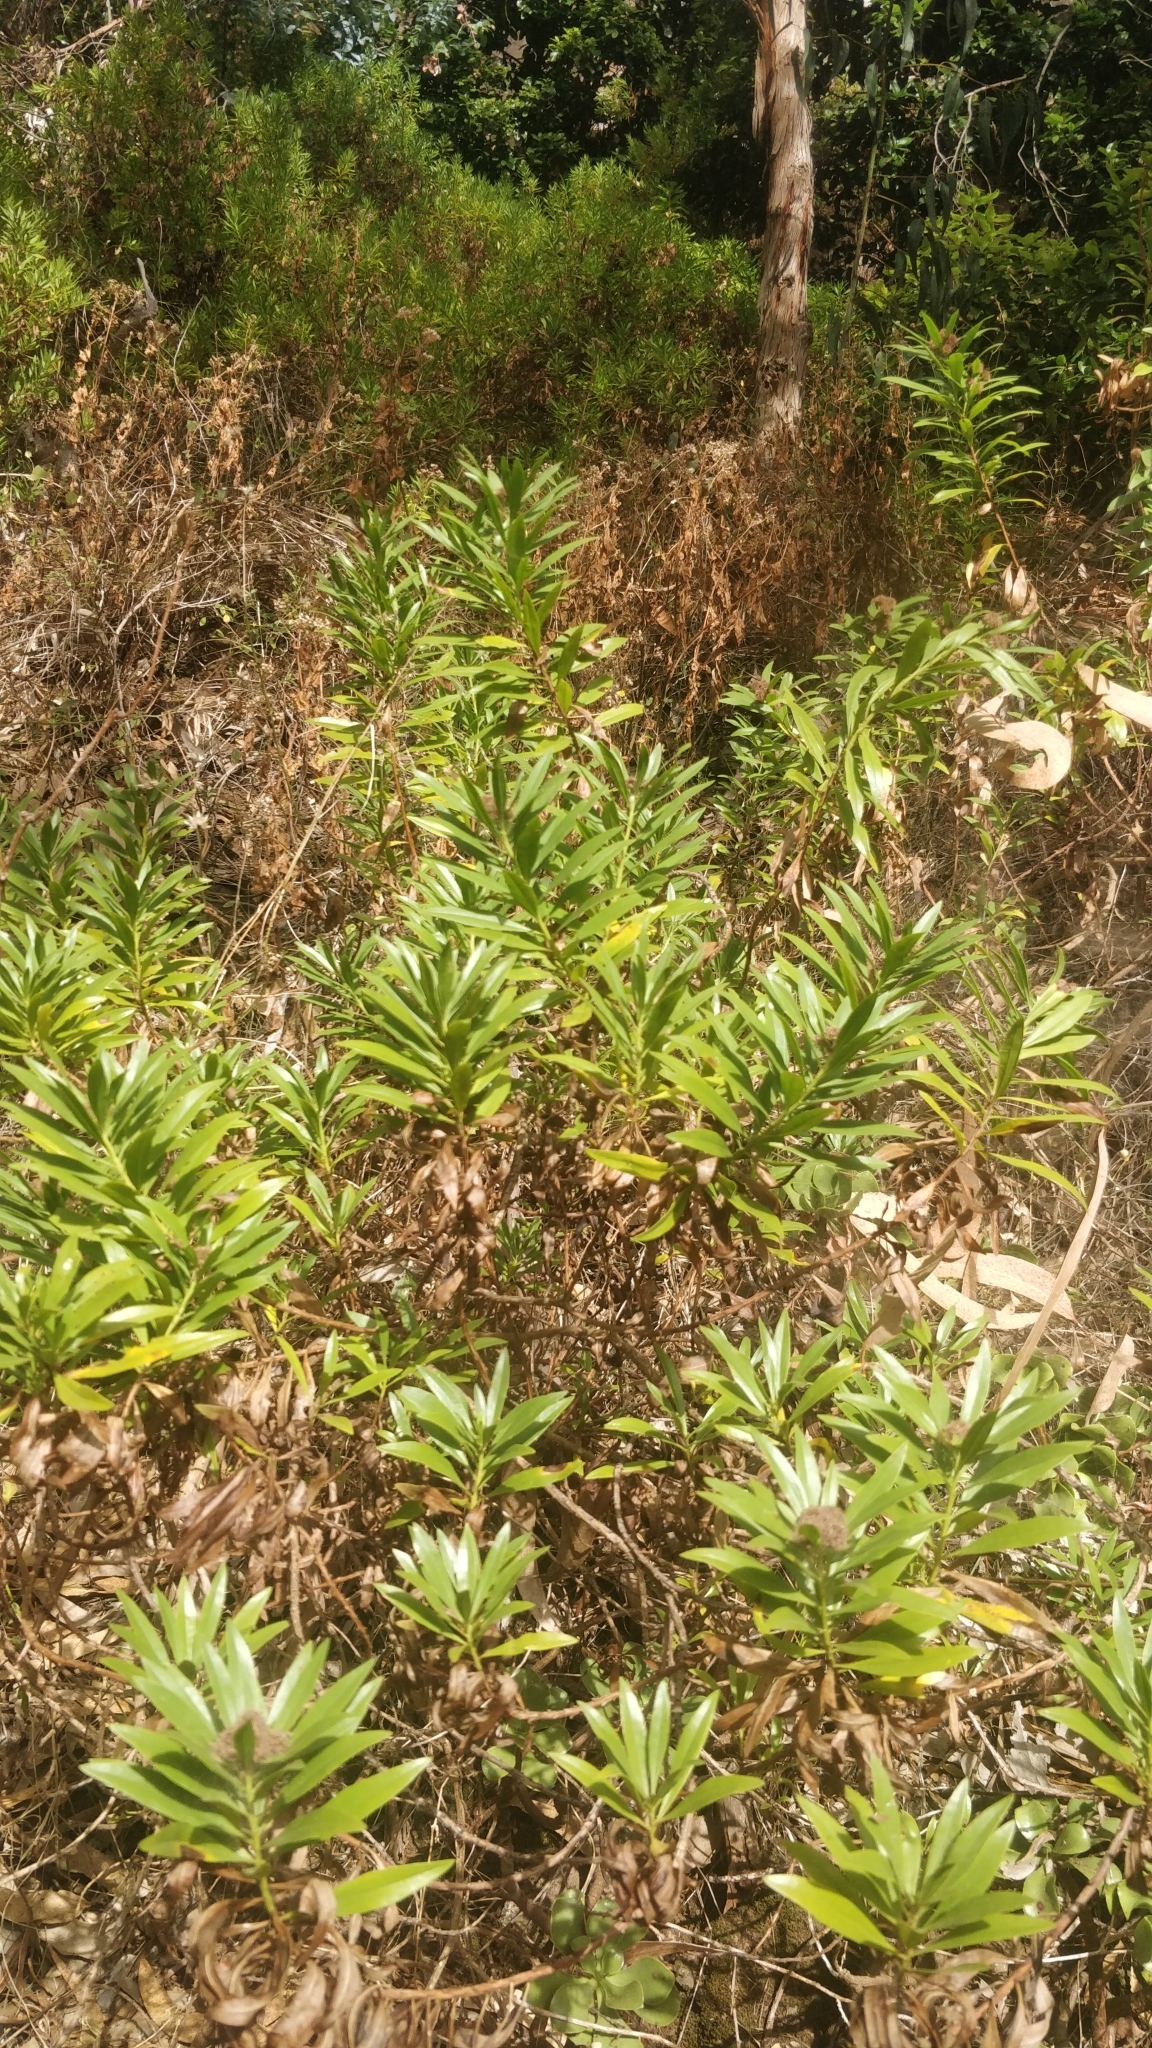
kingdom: Plantae
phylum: Tracheophyta
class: Magnoliopsida
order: Lamiales
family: Plantaginaceae
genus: Globularia
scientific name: Globularia salicina
